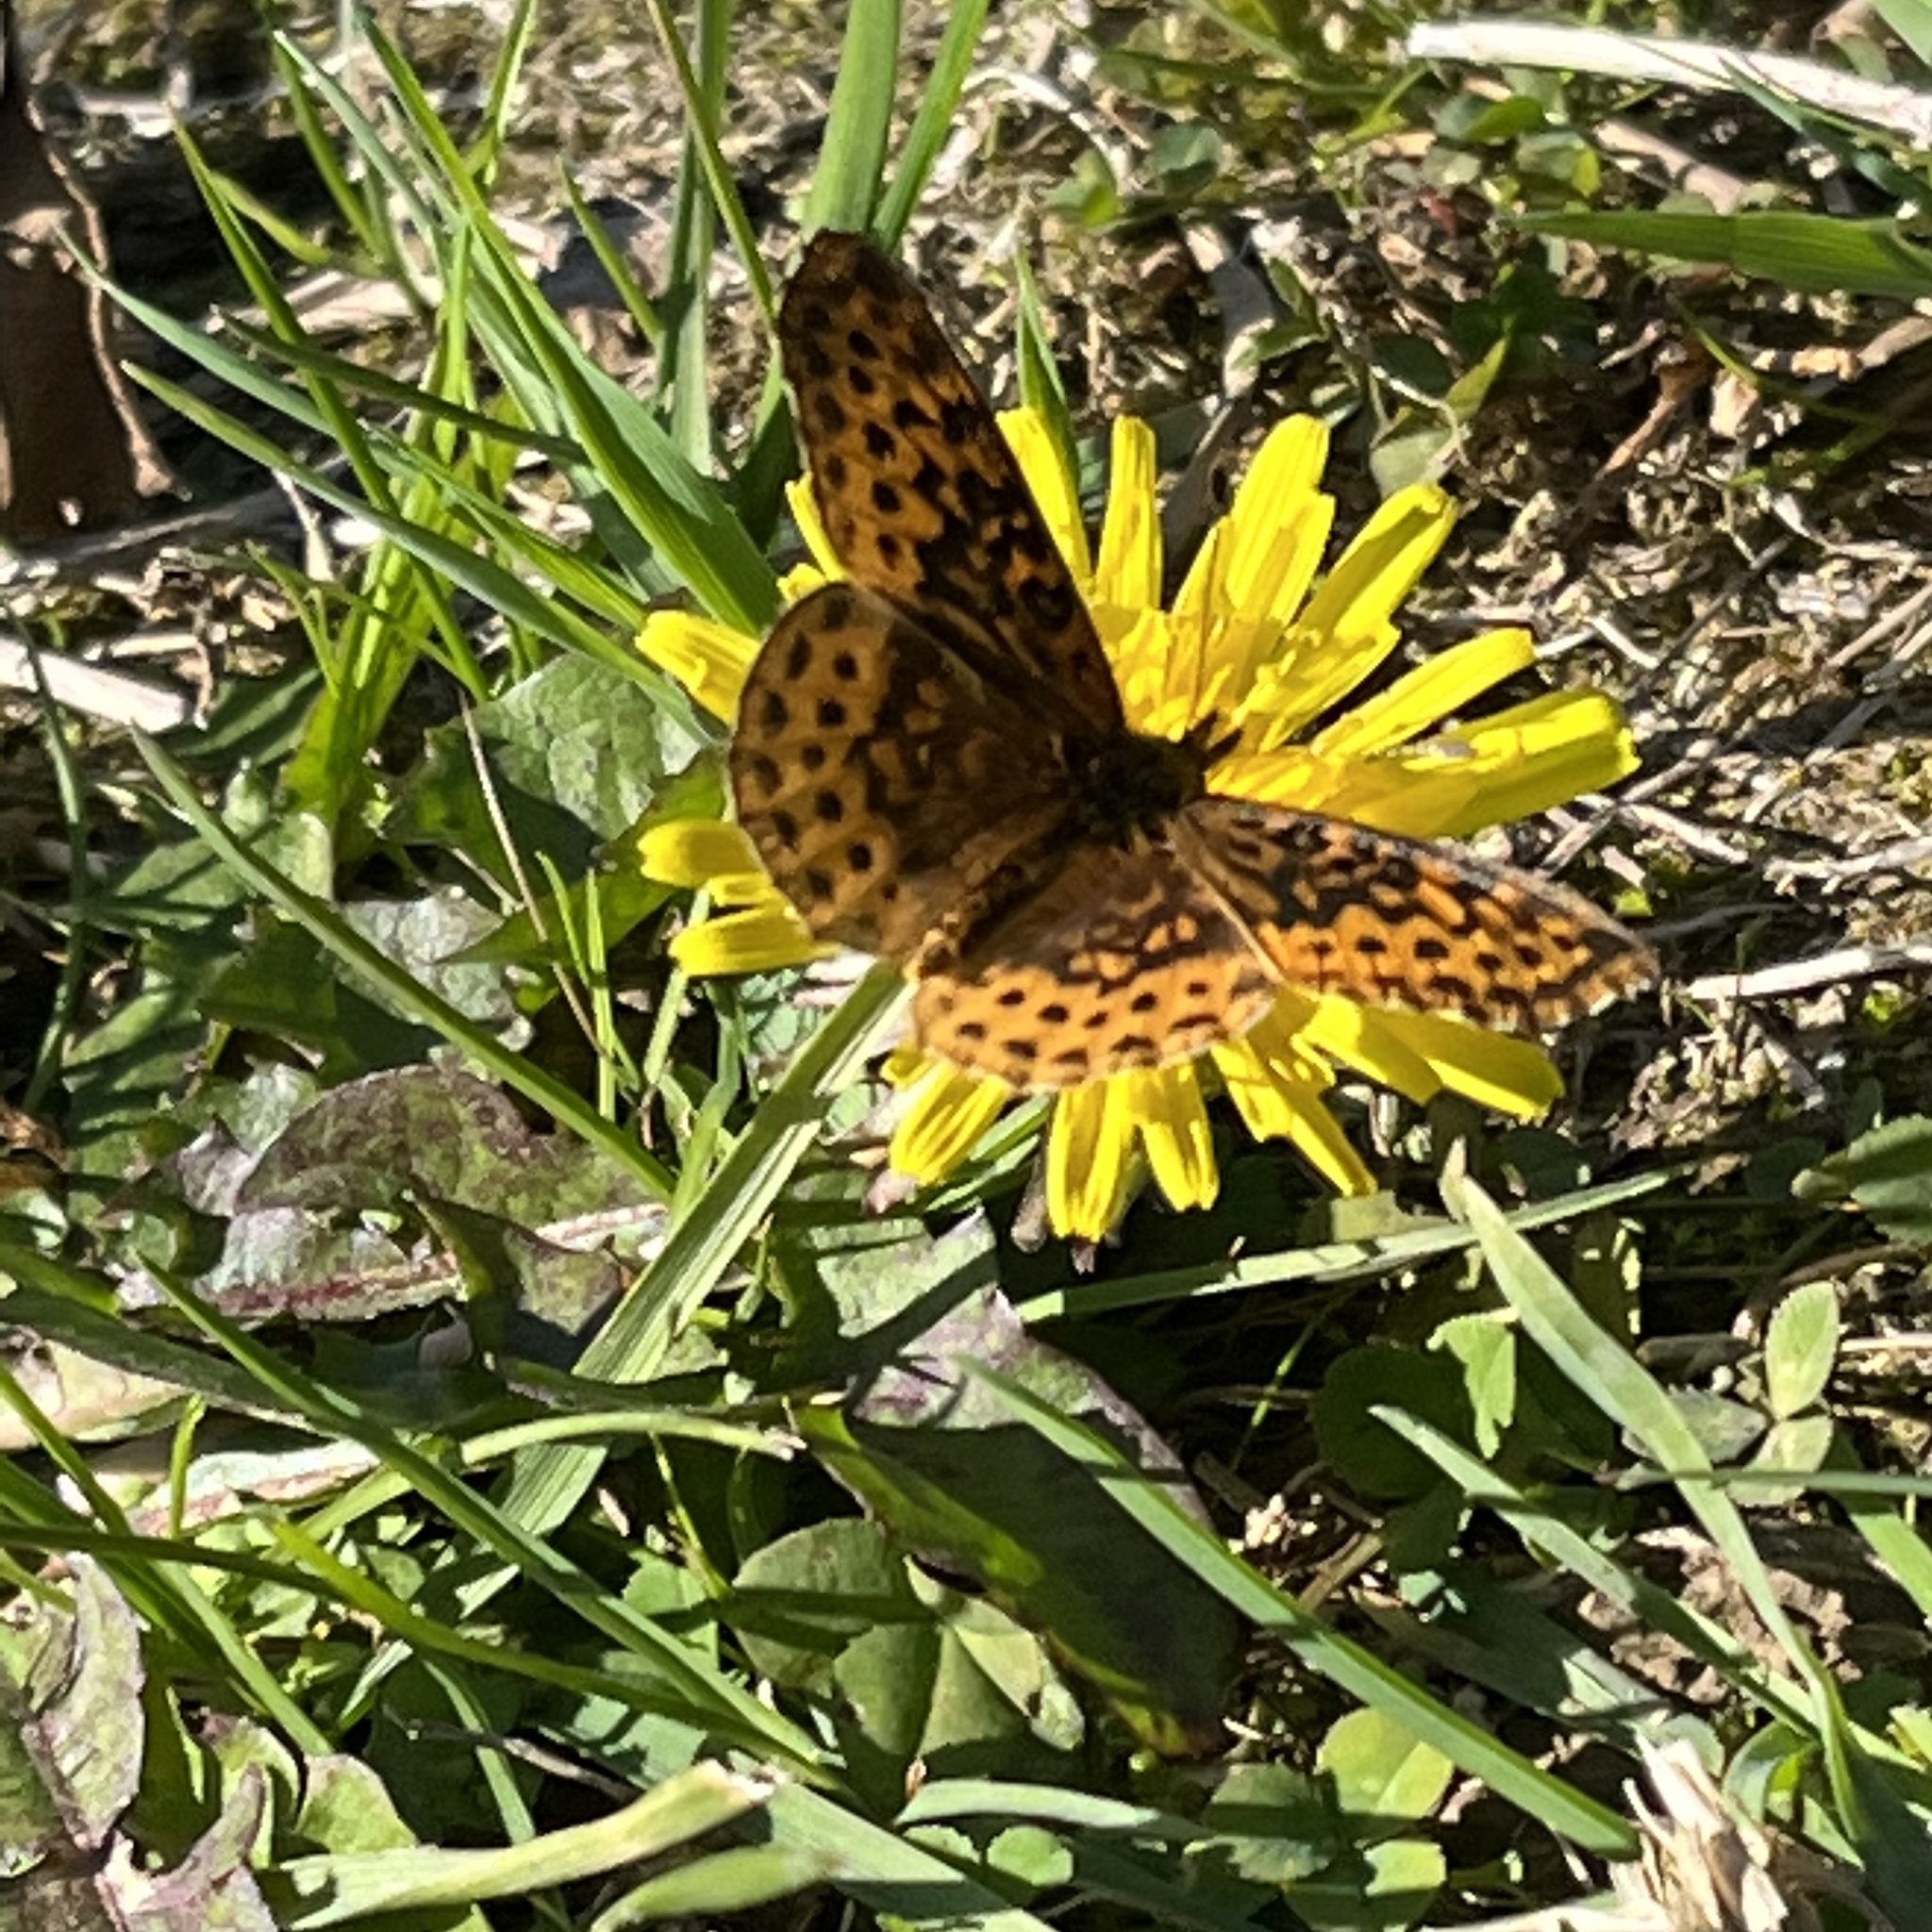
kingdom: Animalia
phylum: Arthropoda
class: Insecta
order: Lepidoptera
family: Nymphalidae
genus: Clossiana
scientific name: Clossiana toddi
